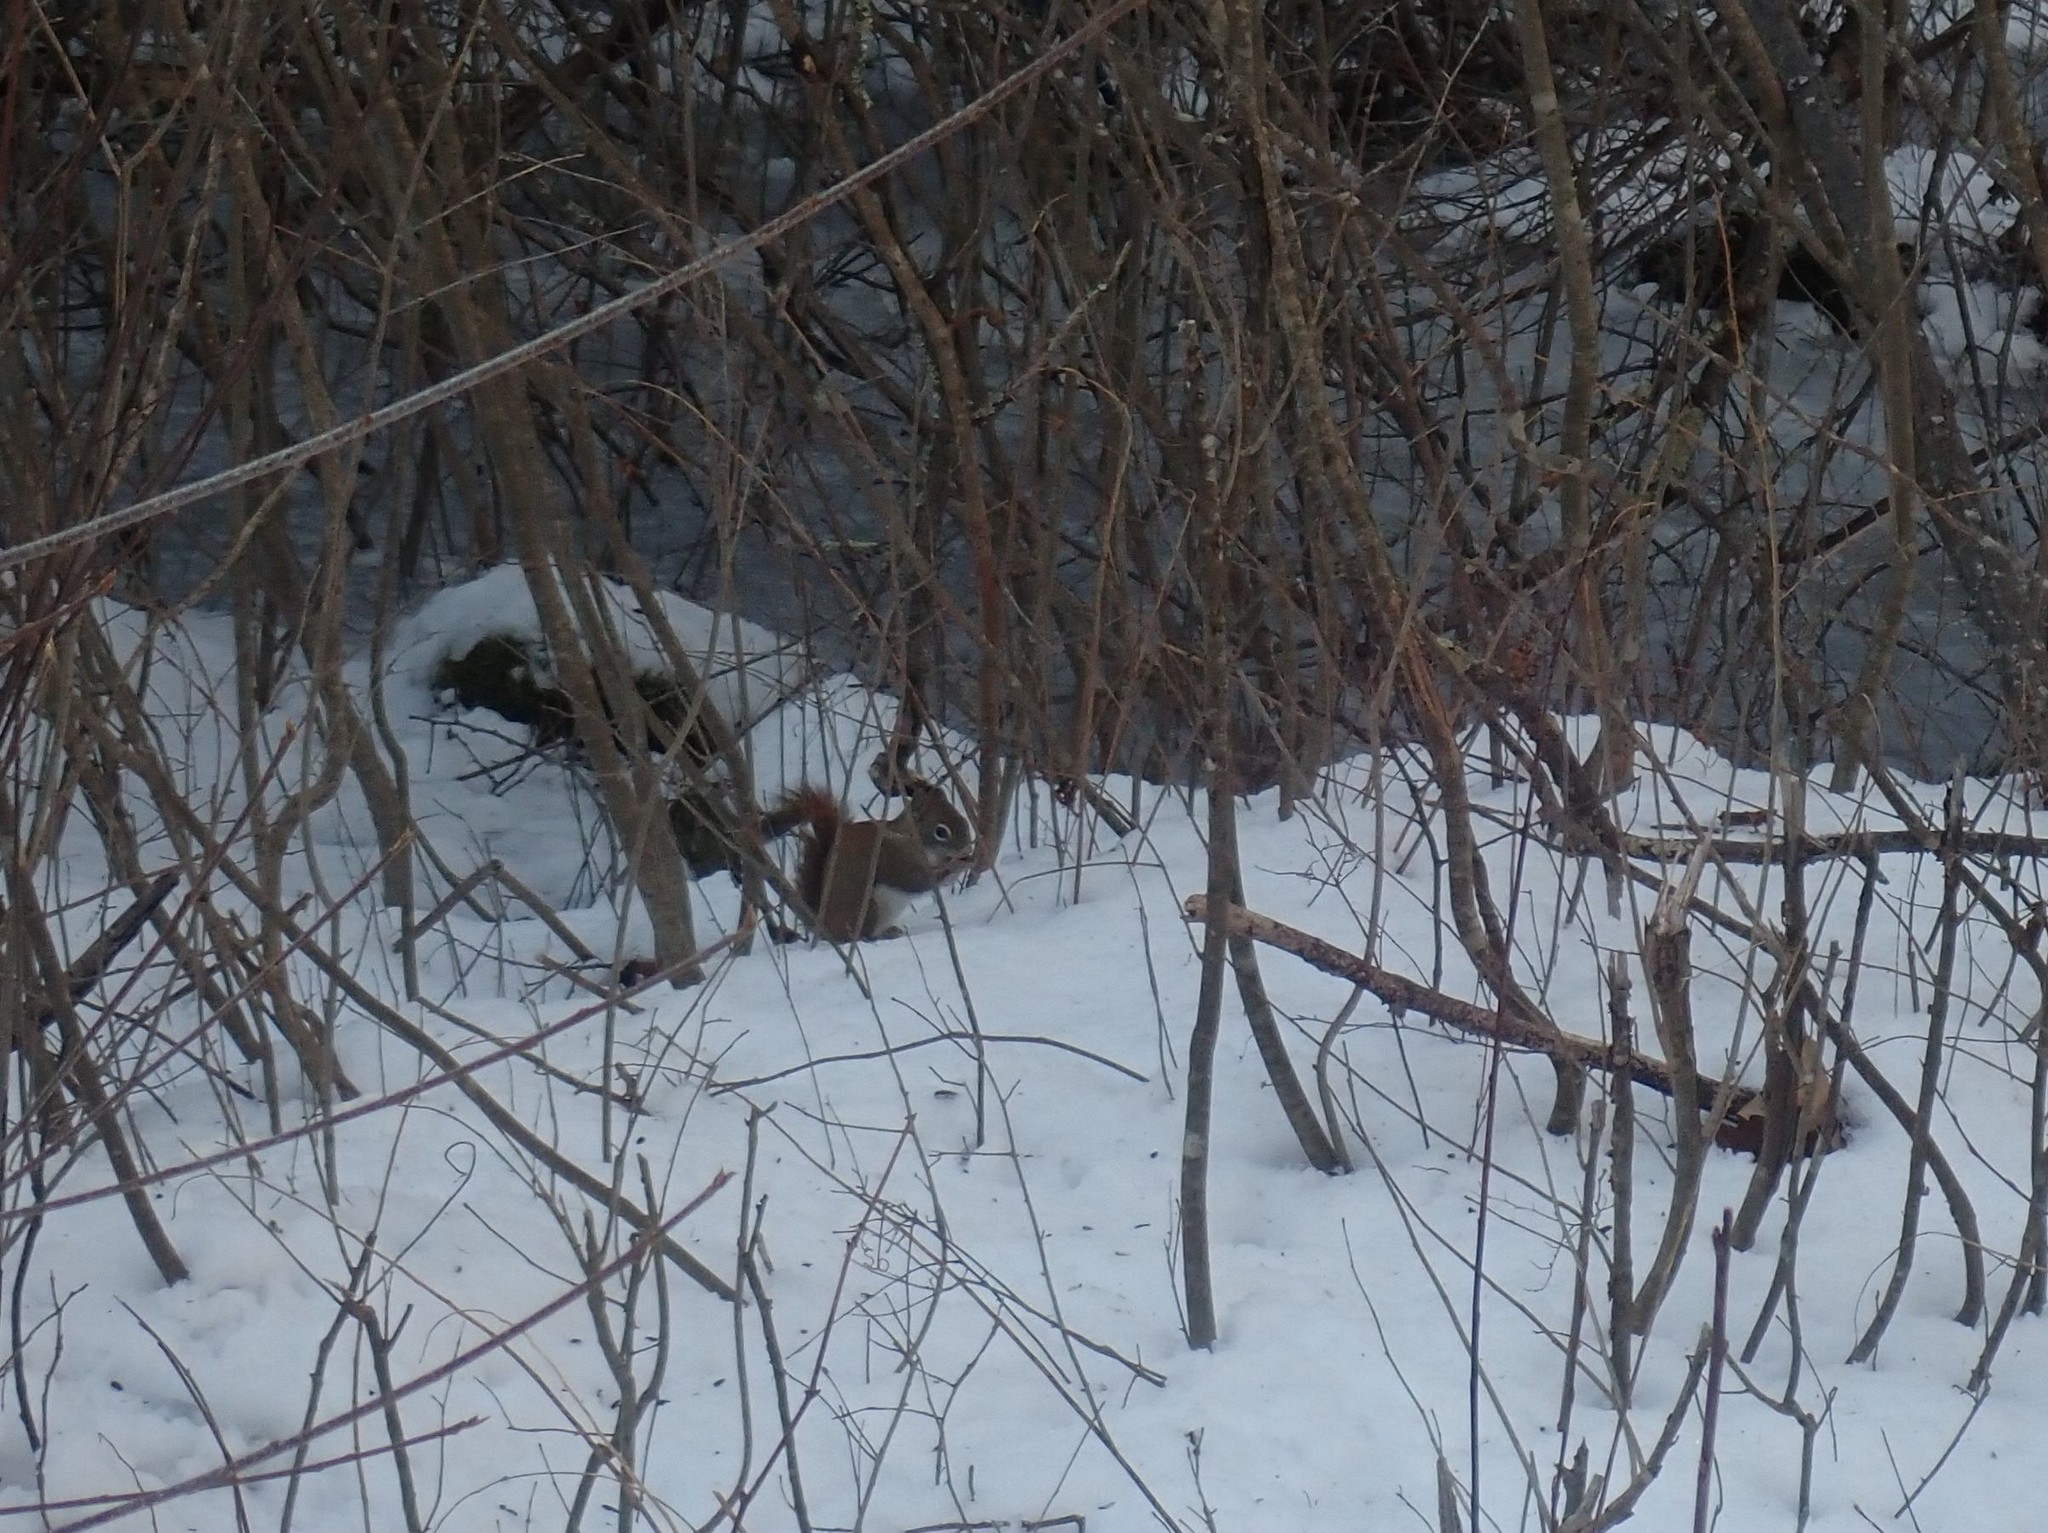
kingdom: Animalia
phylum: Chordata
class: Mammalia
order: Rodentia
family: Sciuridae
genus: Tamiasciurus
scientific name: Tamiasciurus hudsonicus
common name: Red squirrel
